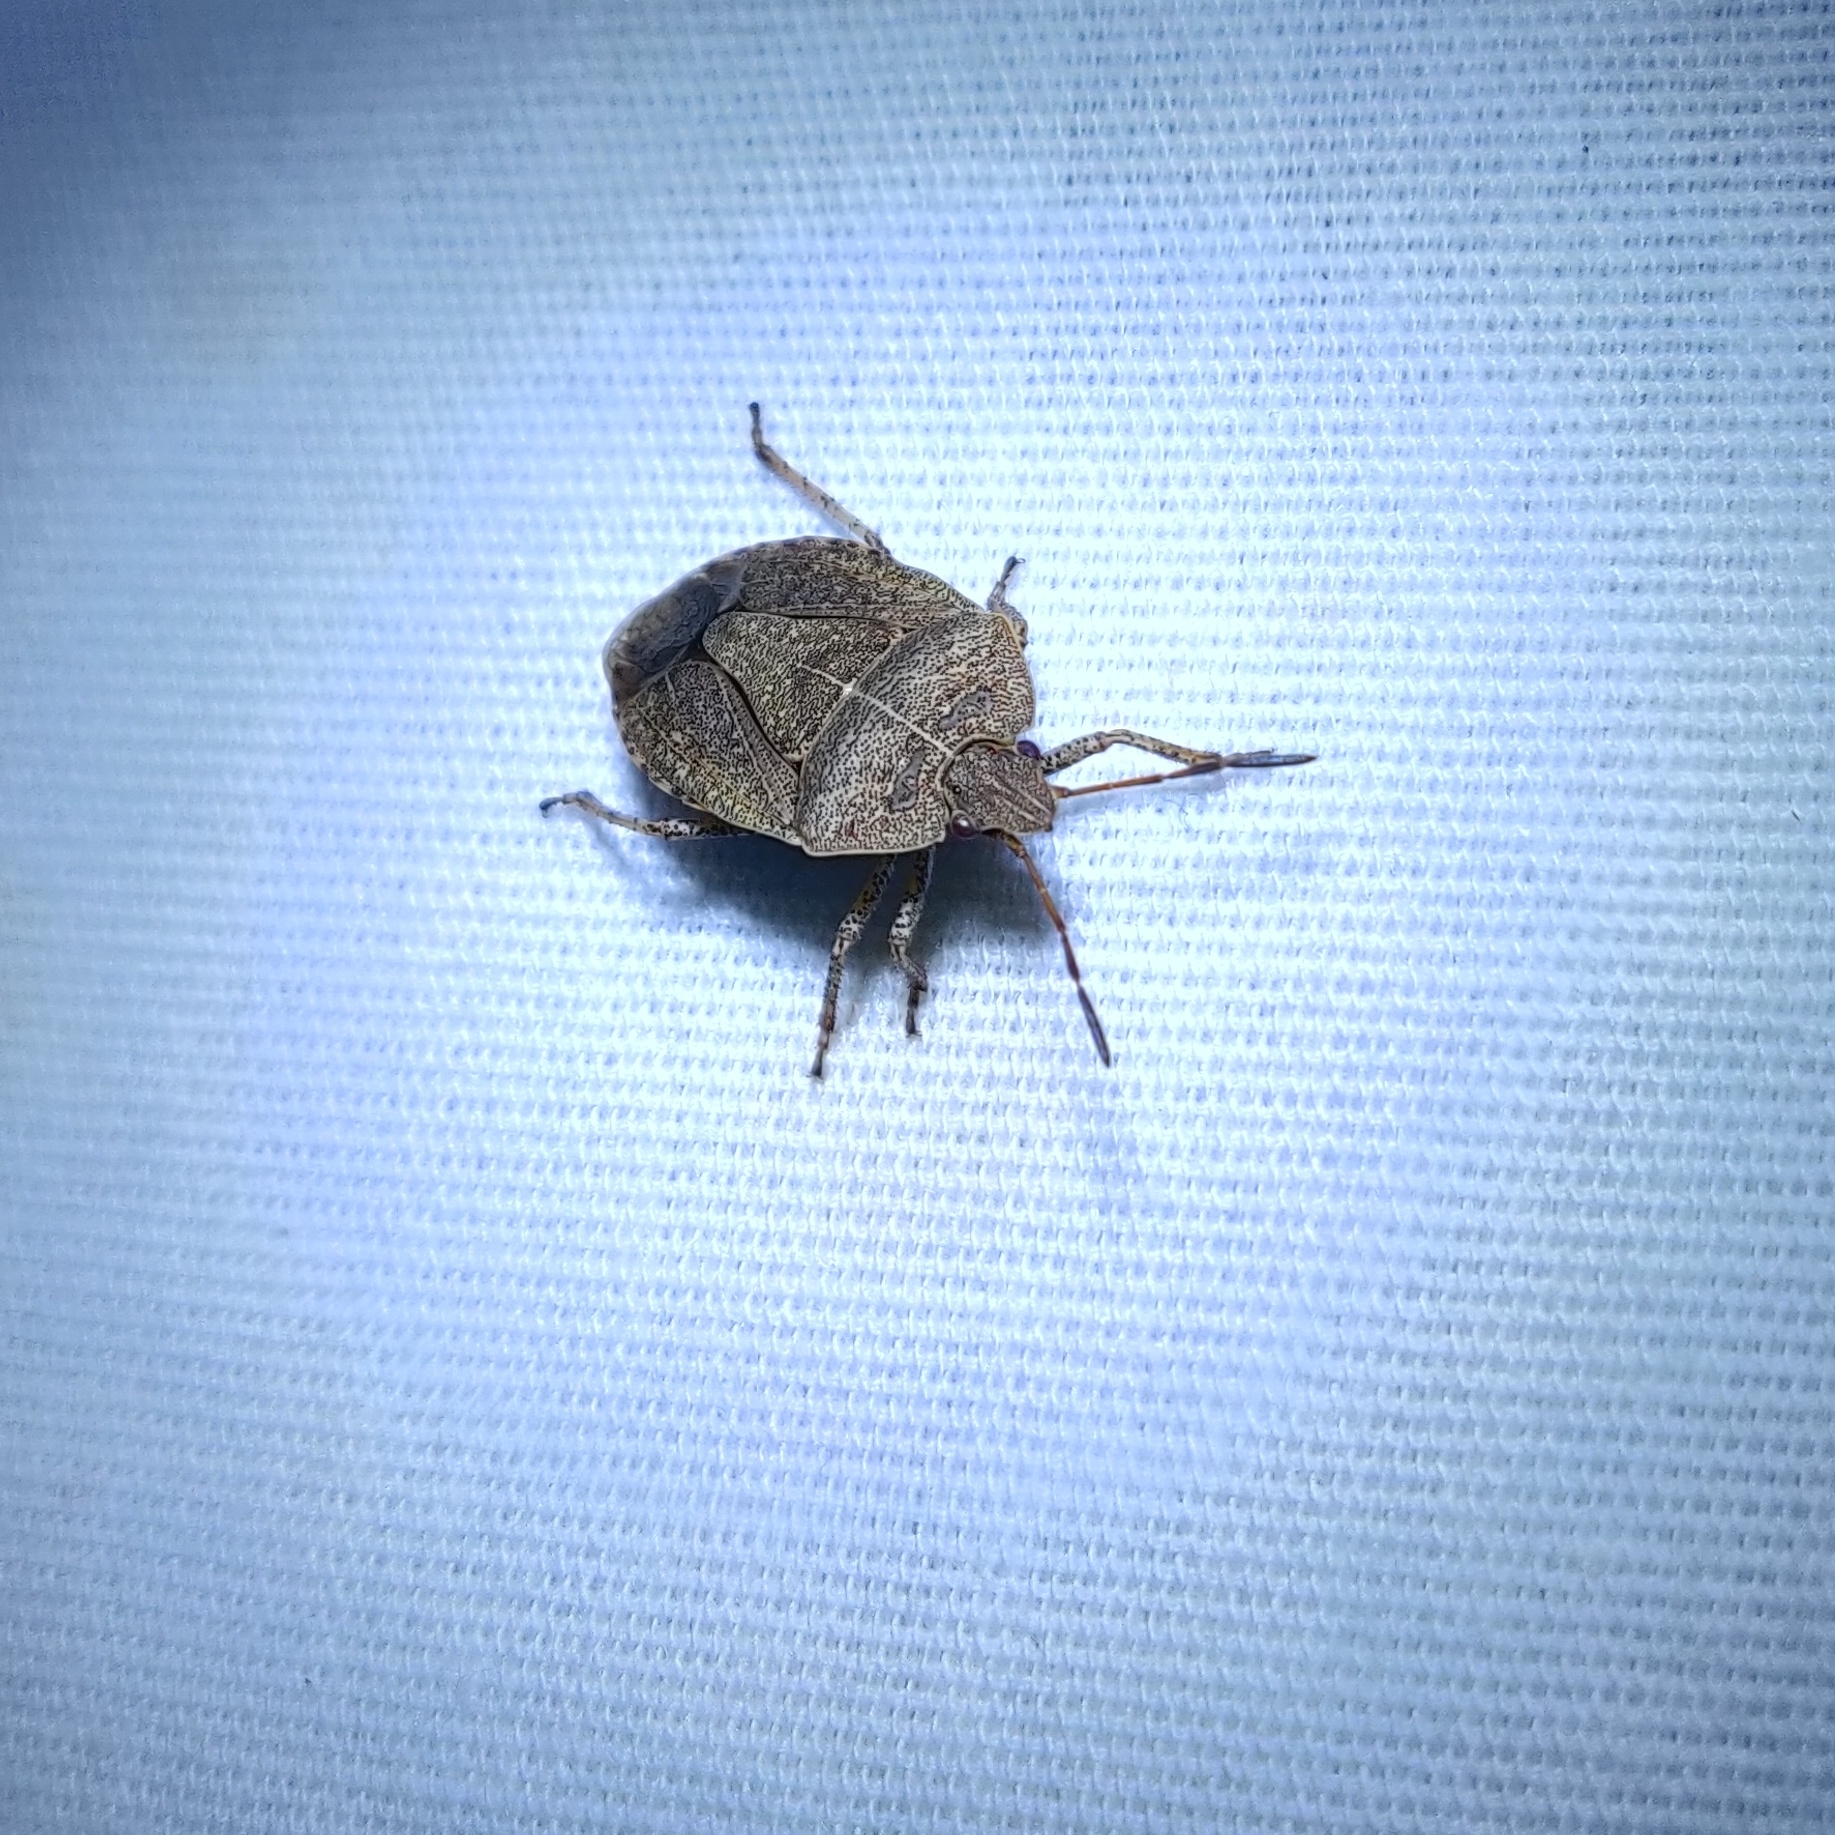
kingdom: Animalia
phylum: Arthropoda
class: Insecta
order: Hemiptera
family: Pentatomidae
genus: Menecles
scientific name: Menecles insertus
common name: Elf shoe stink bug
